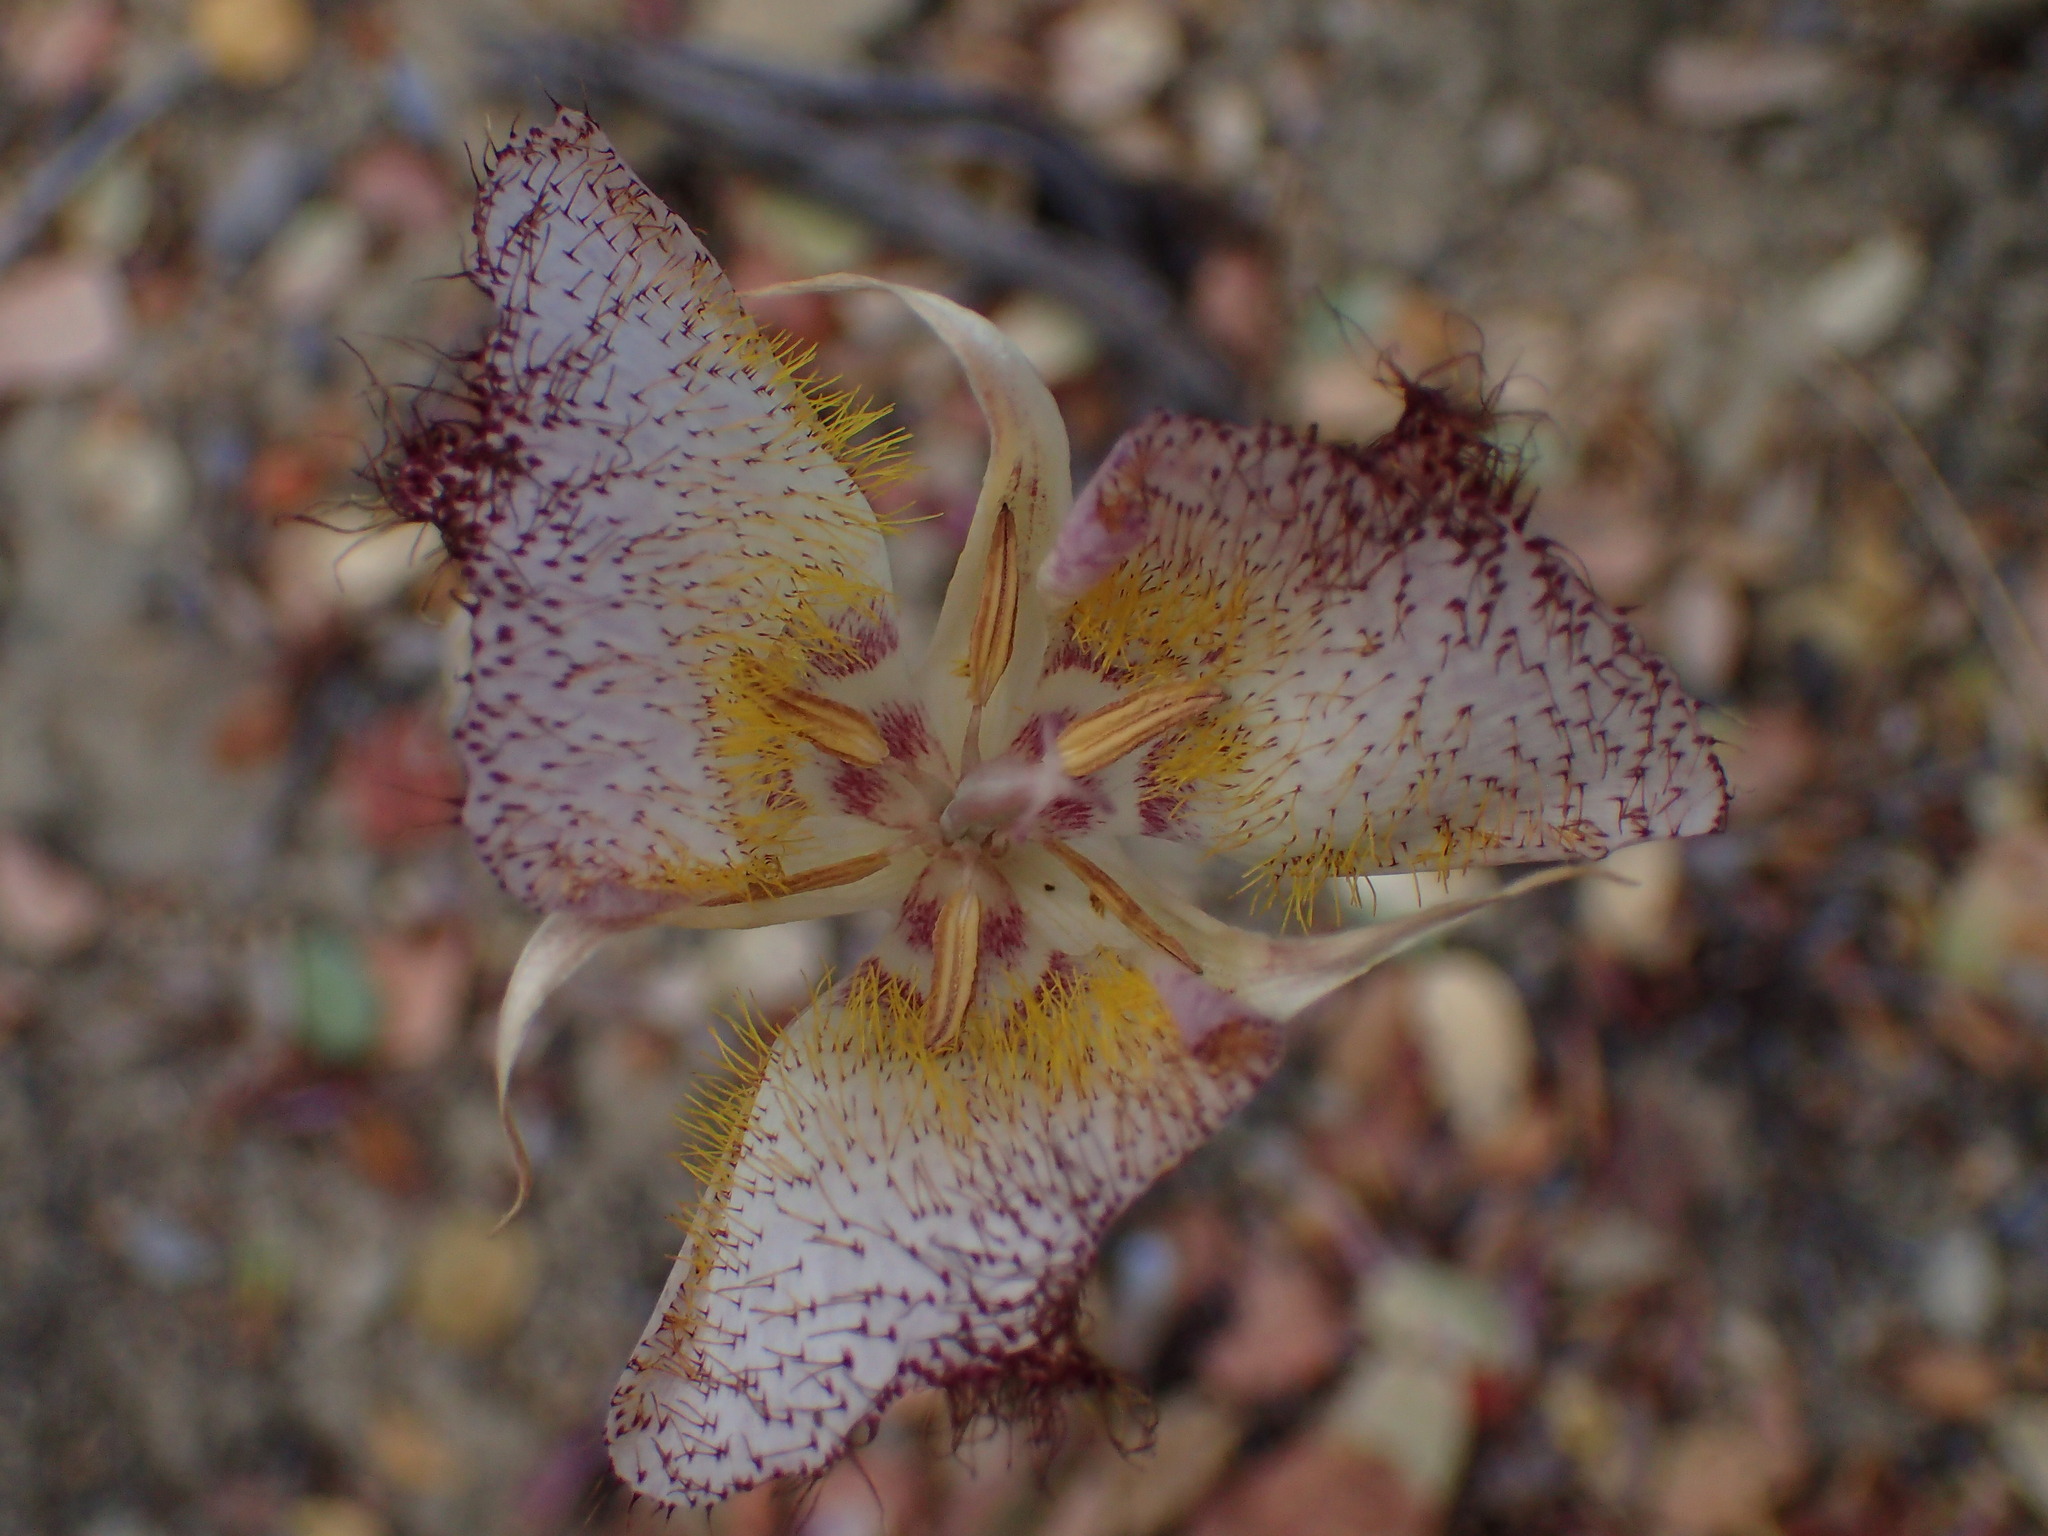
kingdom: Plantae
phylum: Tracheophyta
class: Liliopsida
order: Liliales
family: Liliaceae
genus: Calochortus
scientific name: Calochortus fimbriatus
